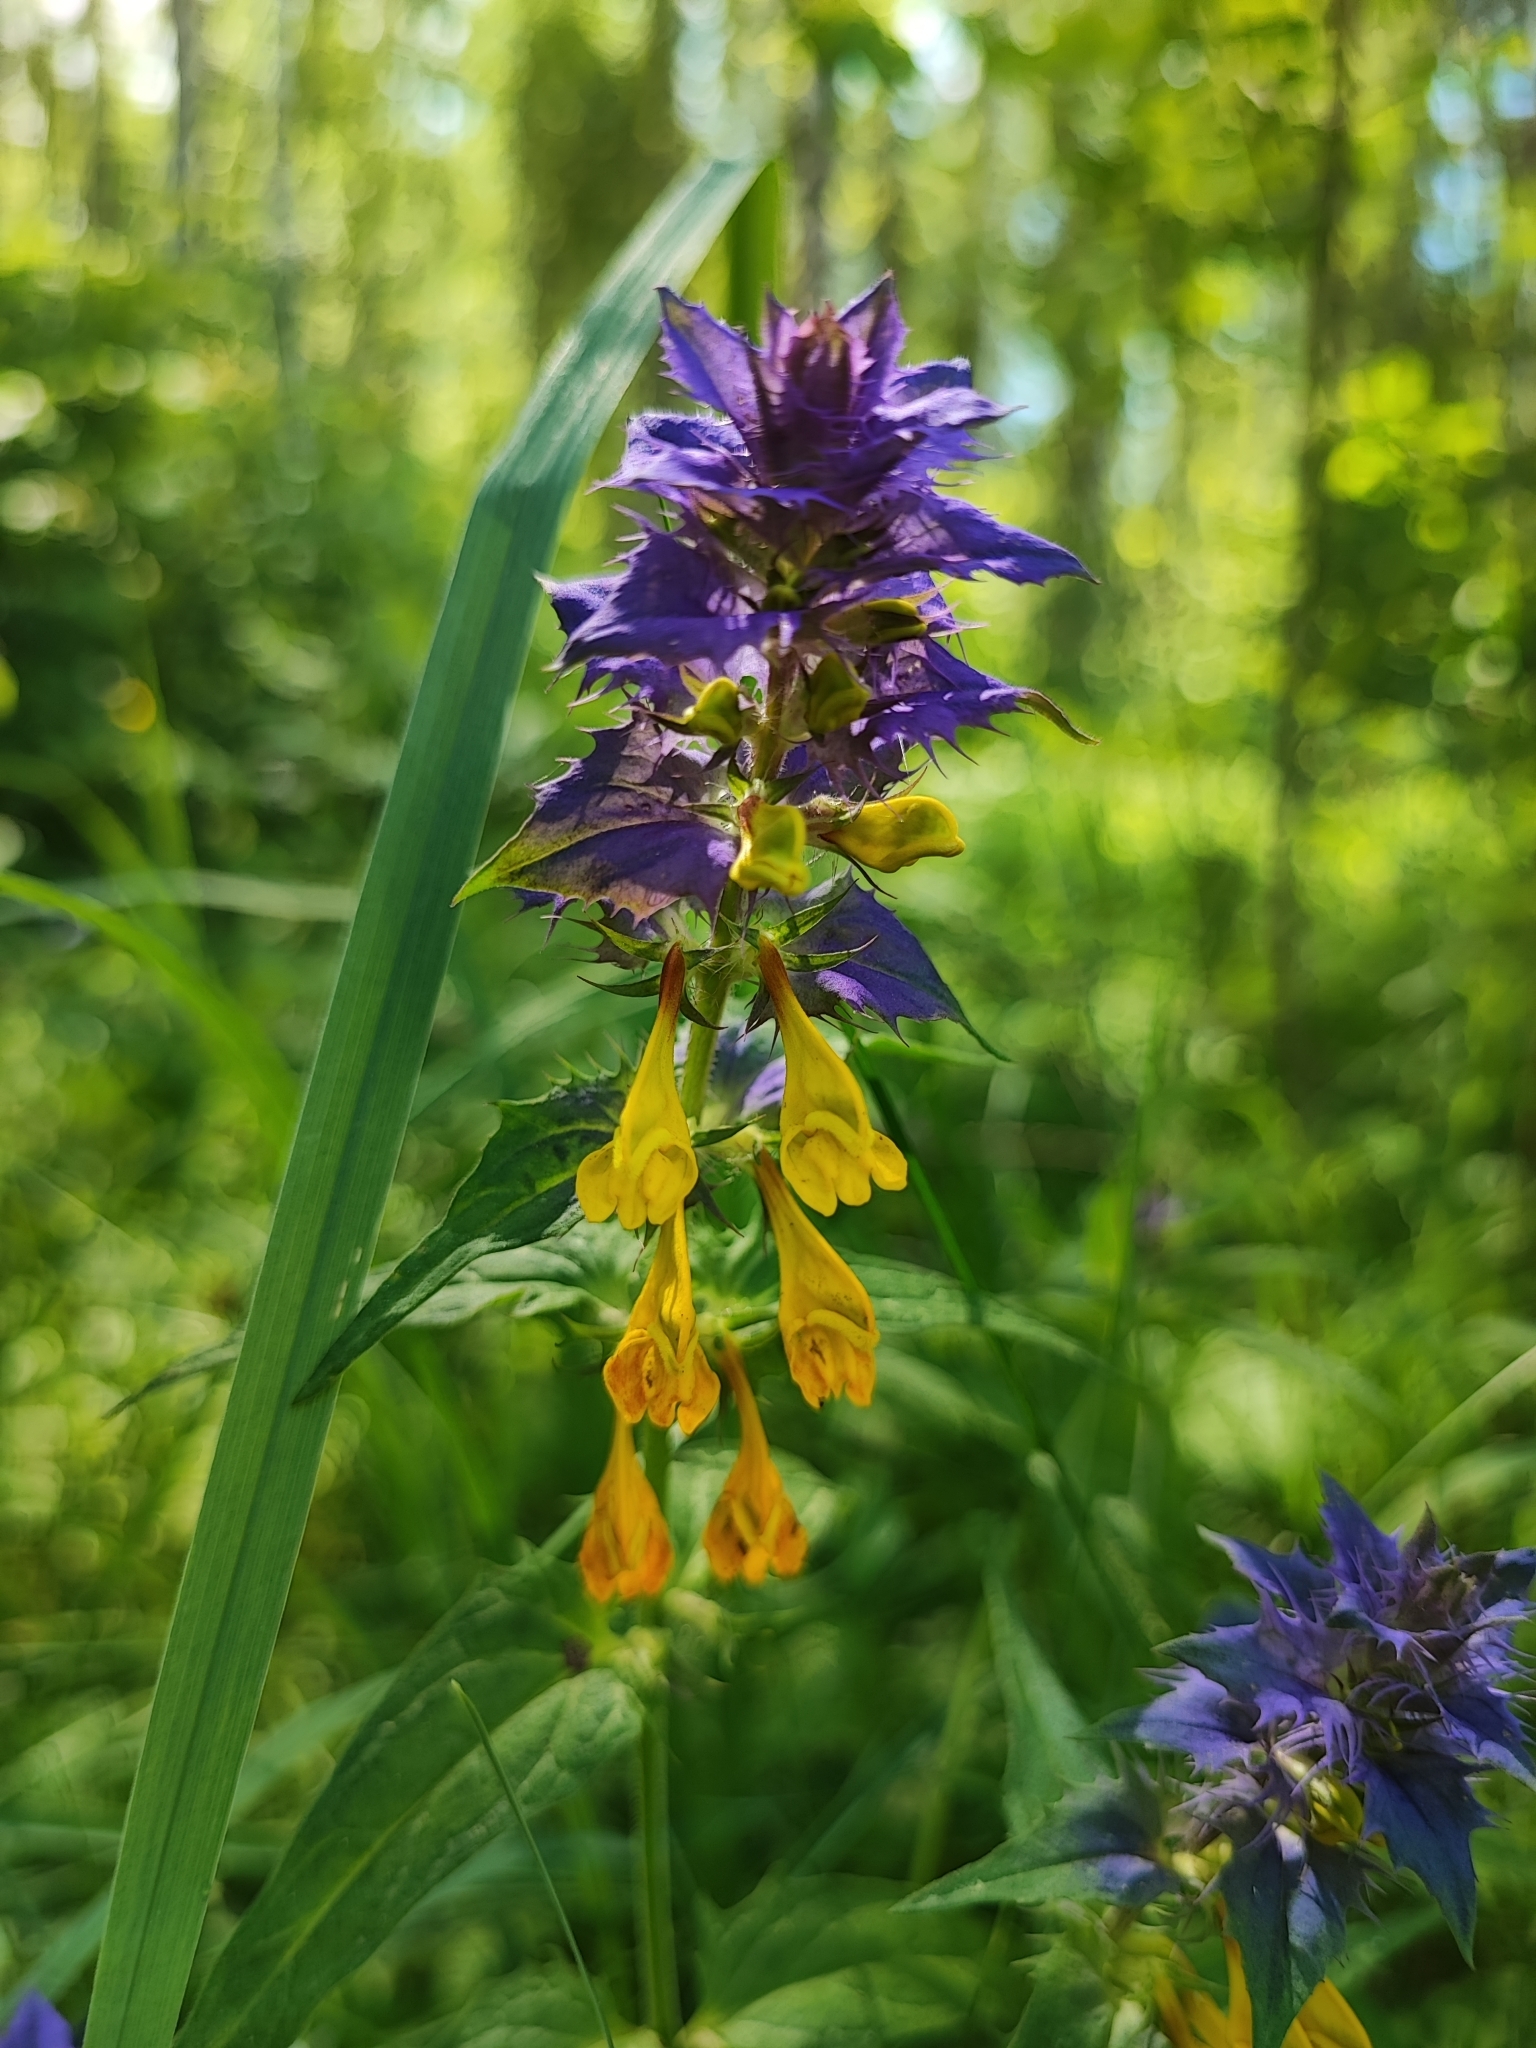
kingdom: Plantae
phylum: Tracheophyta
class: Magnoliopsida
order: Lamiales
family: Orobanchaceae
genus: Melampyrum
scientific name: Melampyrum nemorosum
